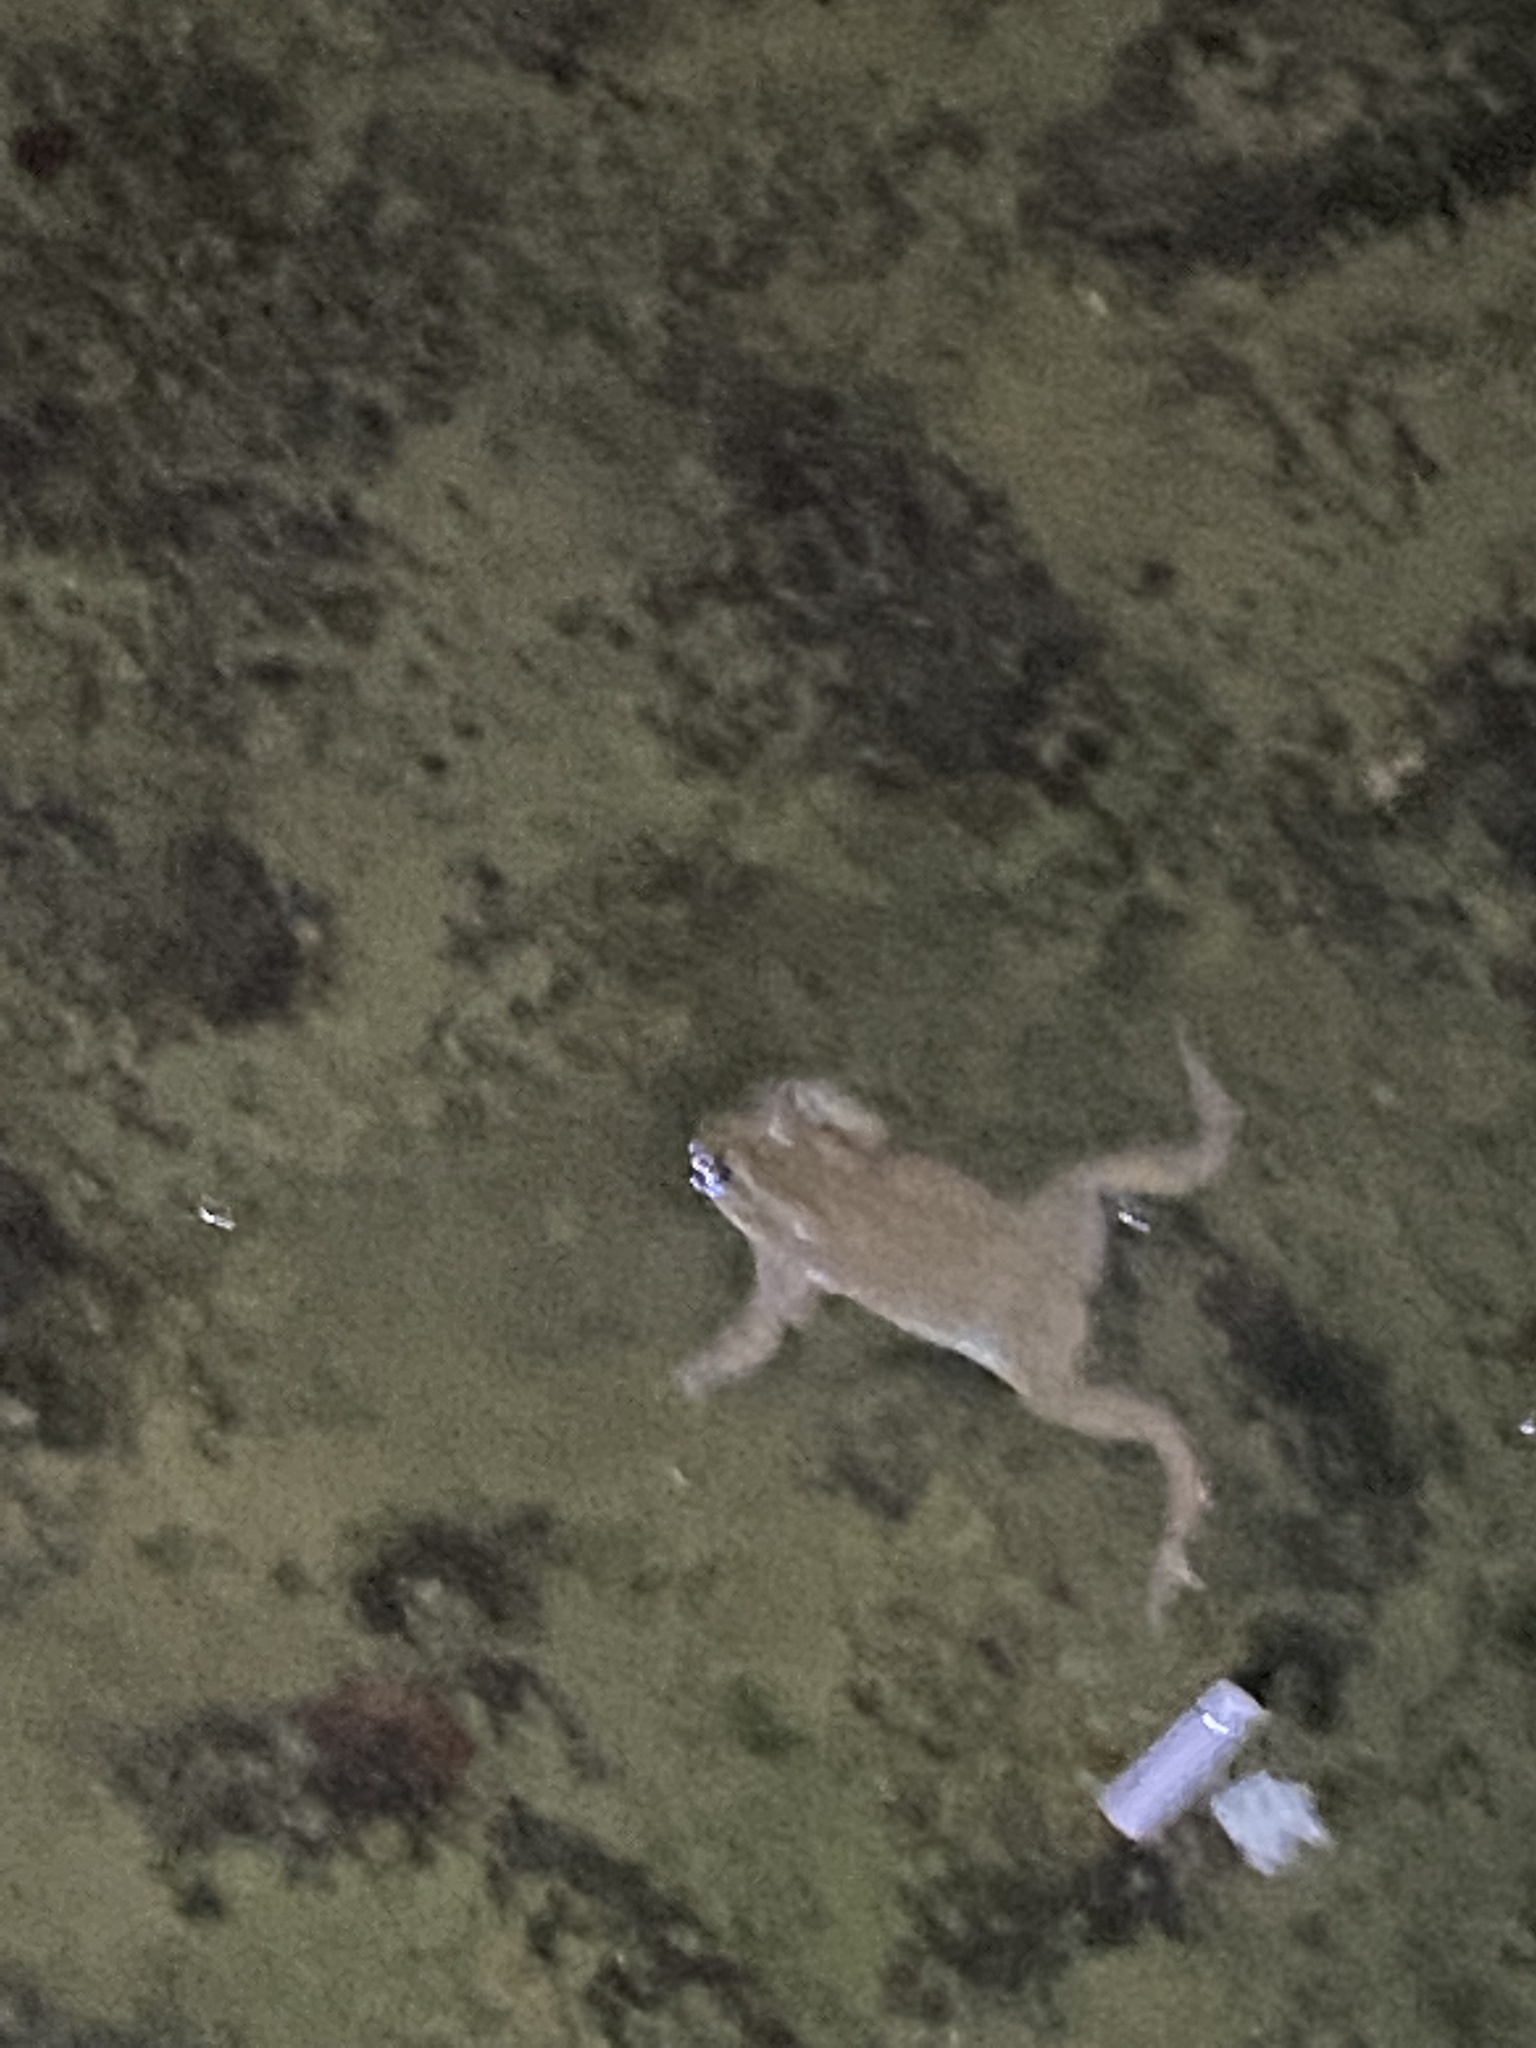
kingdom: Animalia
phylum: Chordata
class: Amphibia
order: Anura
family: Bufonidae
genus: Bufotes
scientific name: Bufotes viridis
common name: European green toad
